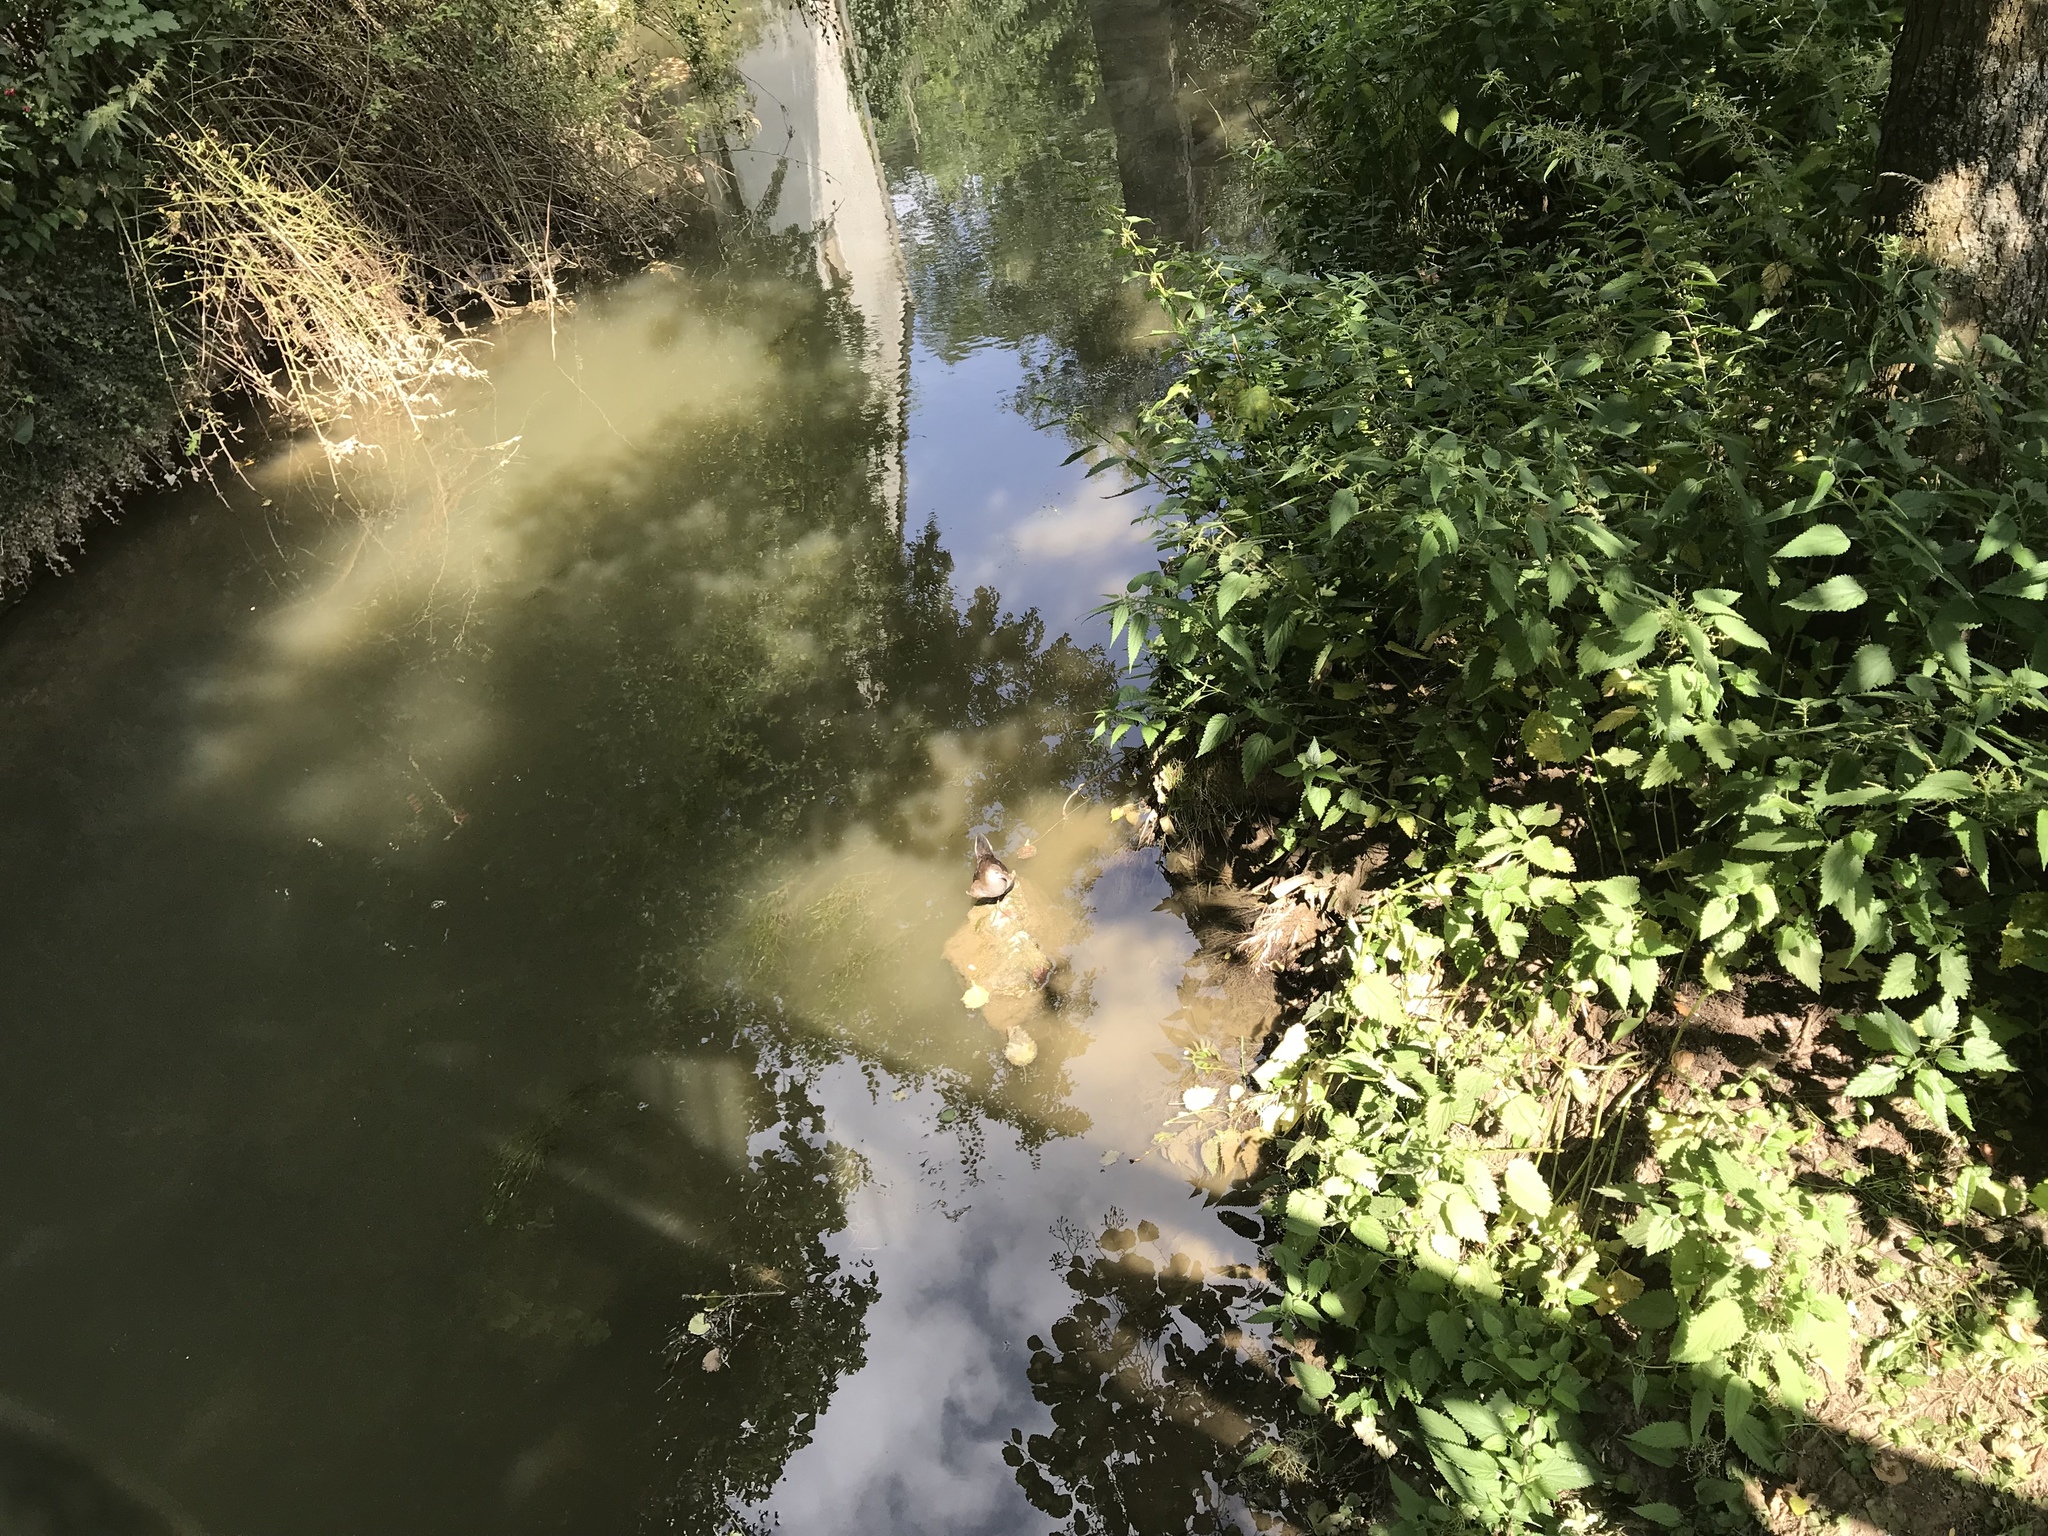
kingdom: Animalia
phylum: Chordata
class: Aves
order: Gruiformes
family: Rallidae
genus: Gallinula
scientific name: Gallinula chloropus
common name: Common moorhen
